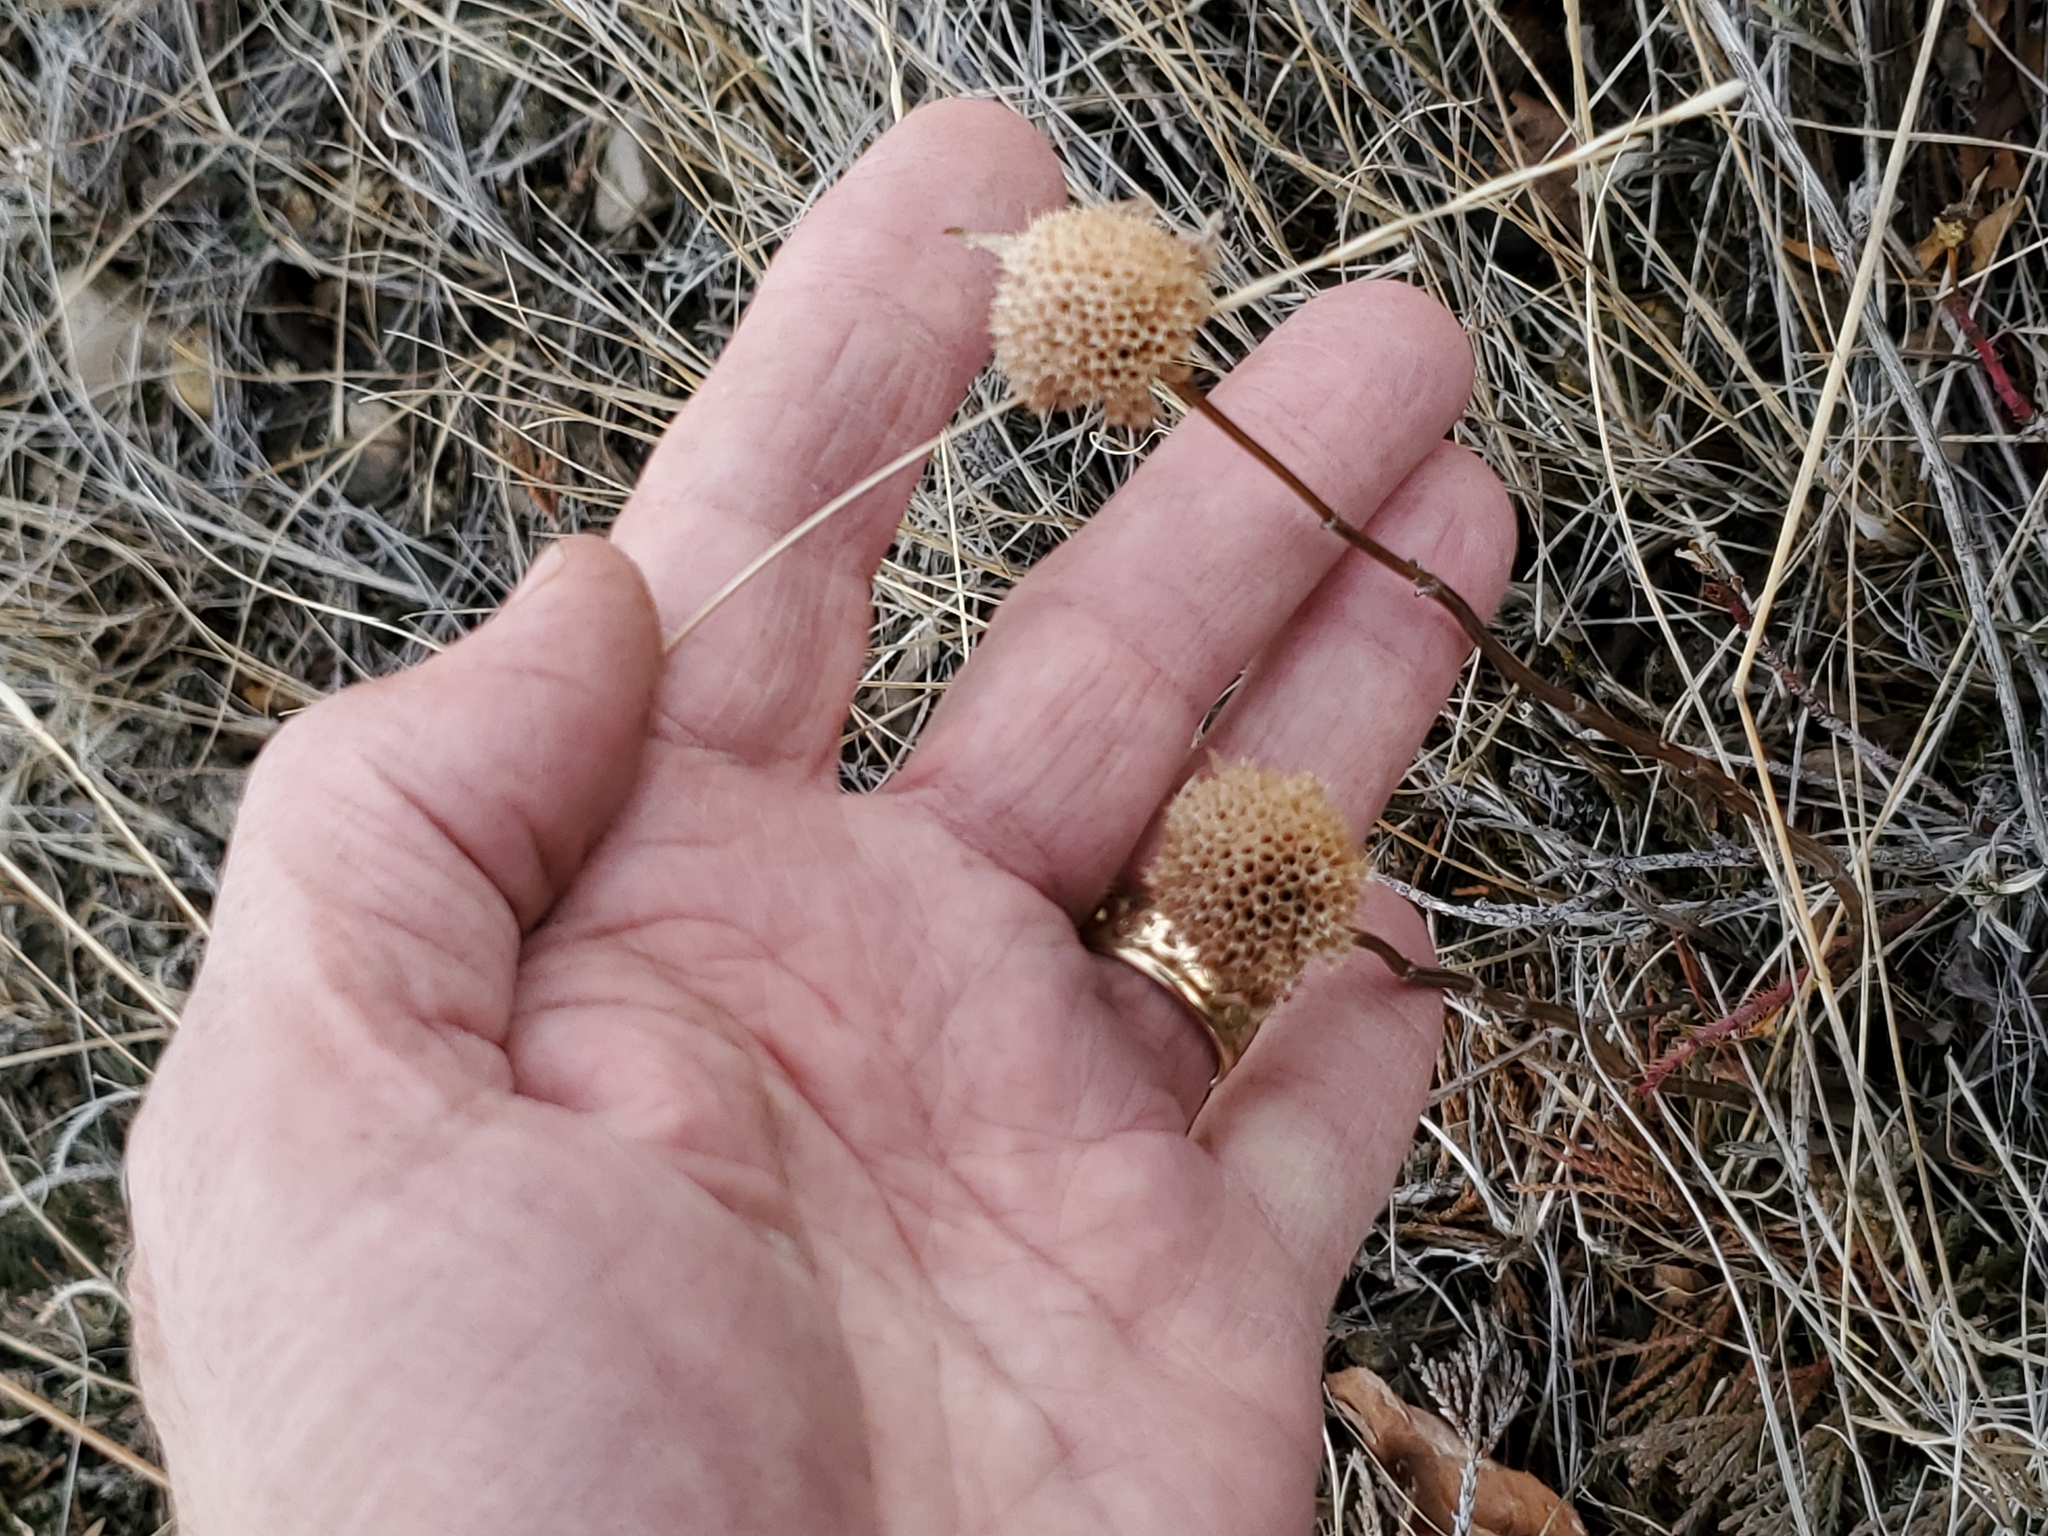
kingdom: Plantae
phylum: Tracheophyta
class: Magnoliopsida
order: Lamiales
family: Lamiaceae
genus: Monarda
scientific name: Monarda fistulosa
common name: Purple beebalm
